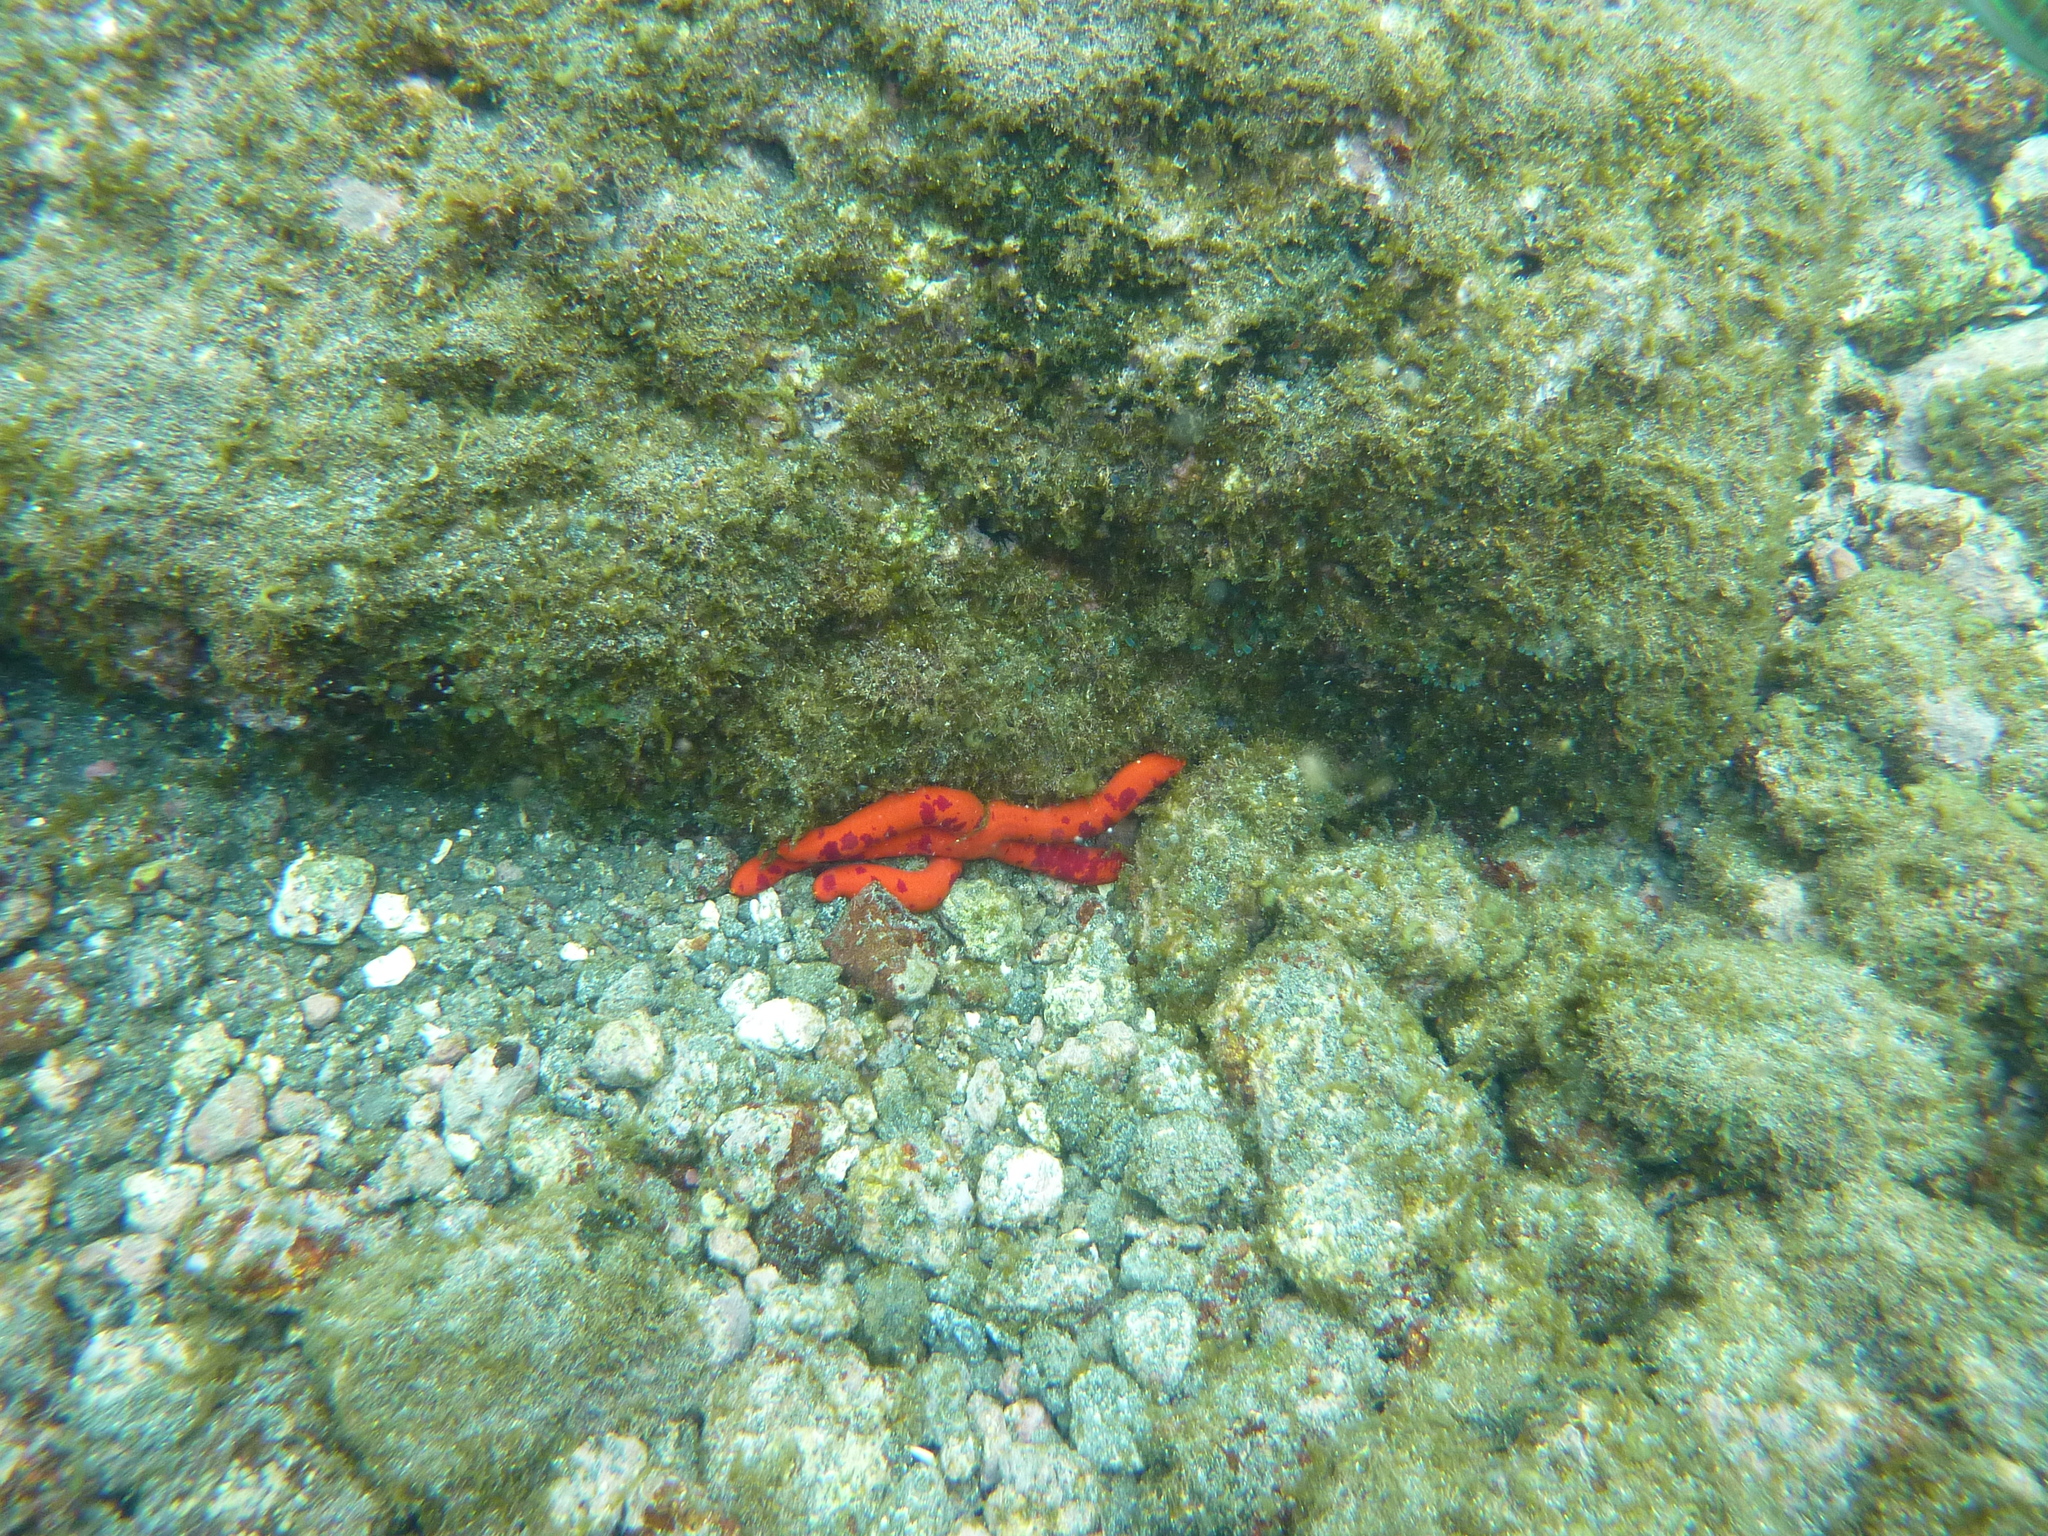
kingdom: Animalia
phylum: Echinodermata
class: Asteroidea
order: Valvatida
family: Ophidiasteridae
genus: Ophidiaster
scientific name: Ophidiaster ophidianus
